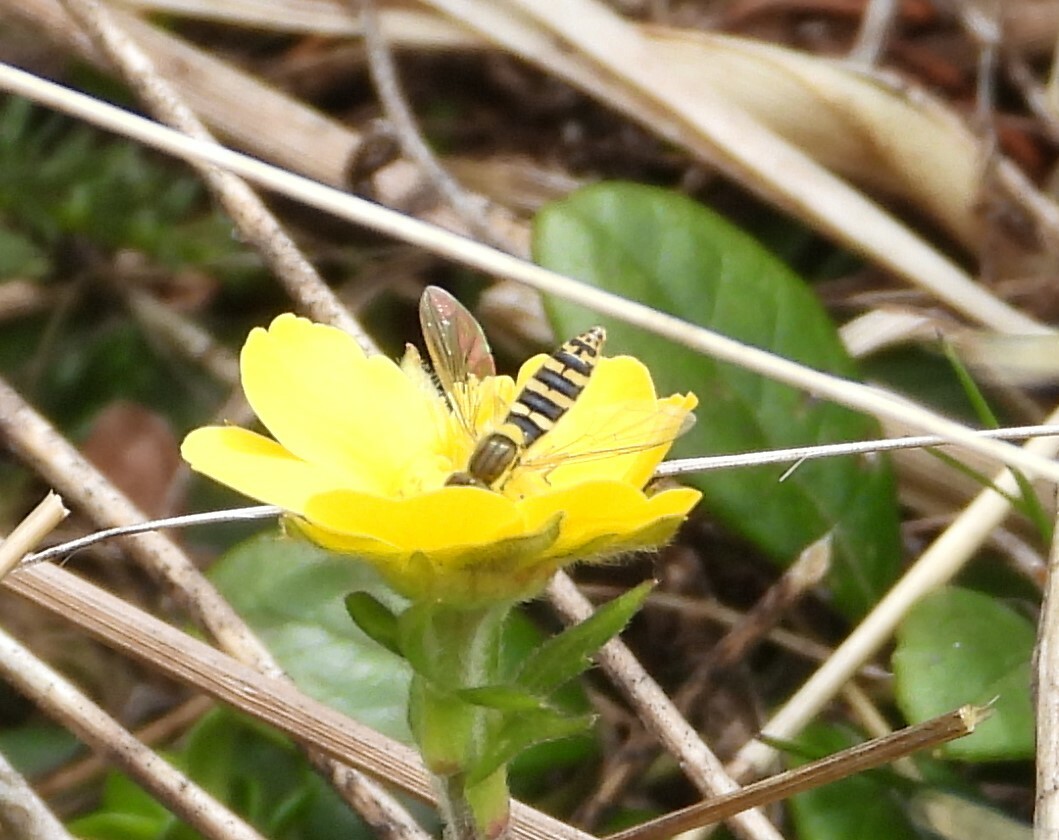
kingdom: Animalia
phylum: Arthropoda
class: Insecta
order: Diptera
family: Syrphidae
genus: Sphaerophoria
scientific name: Sphaerophoria
